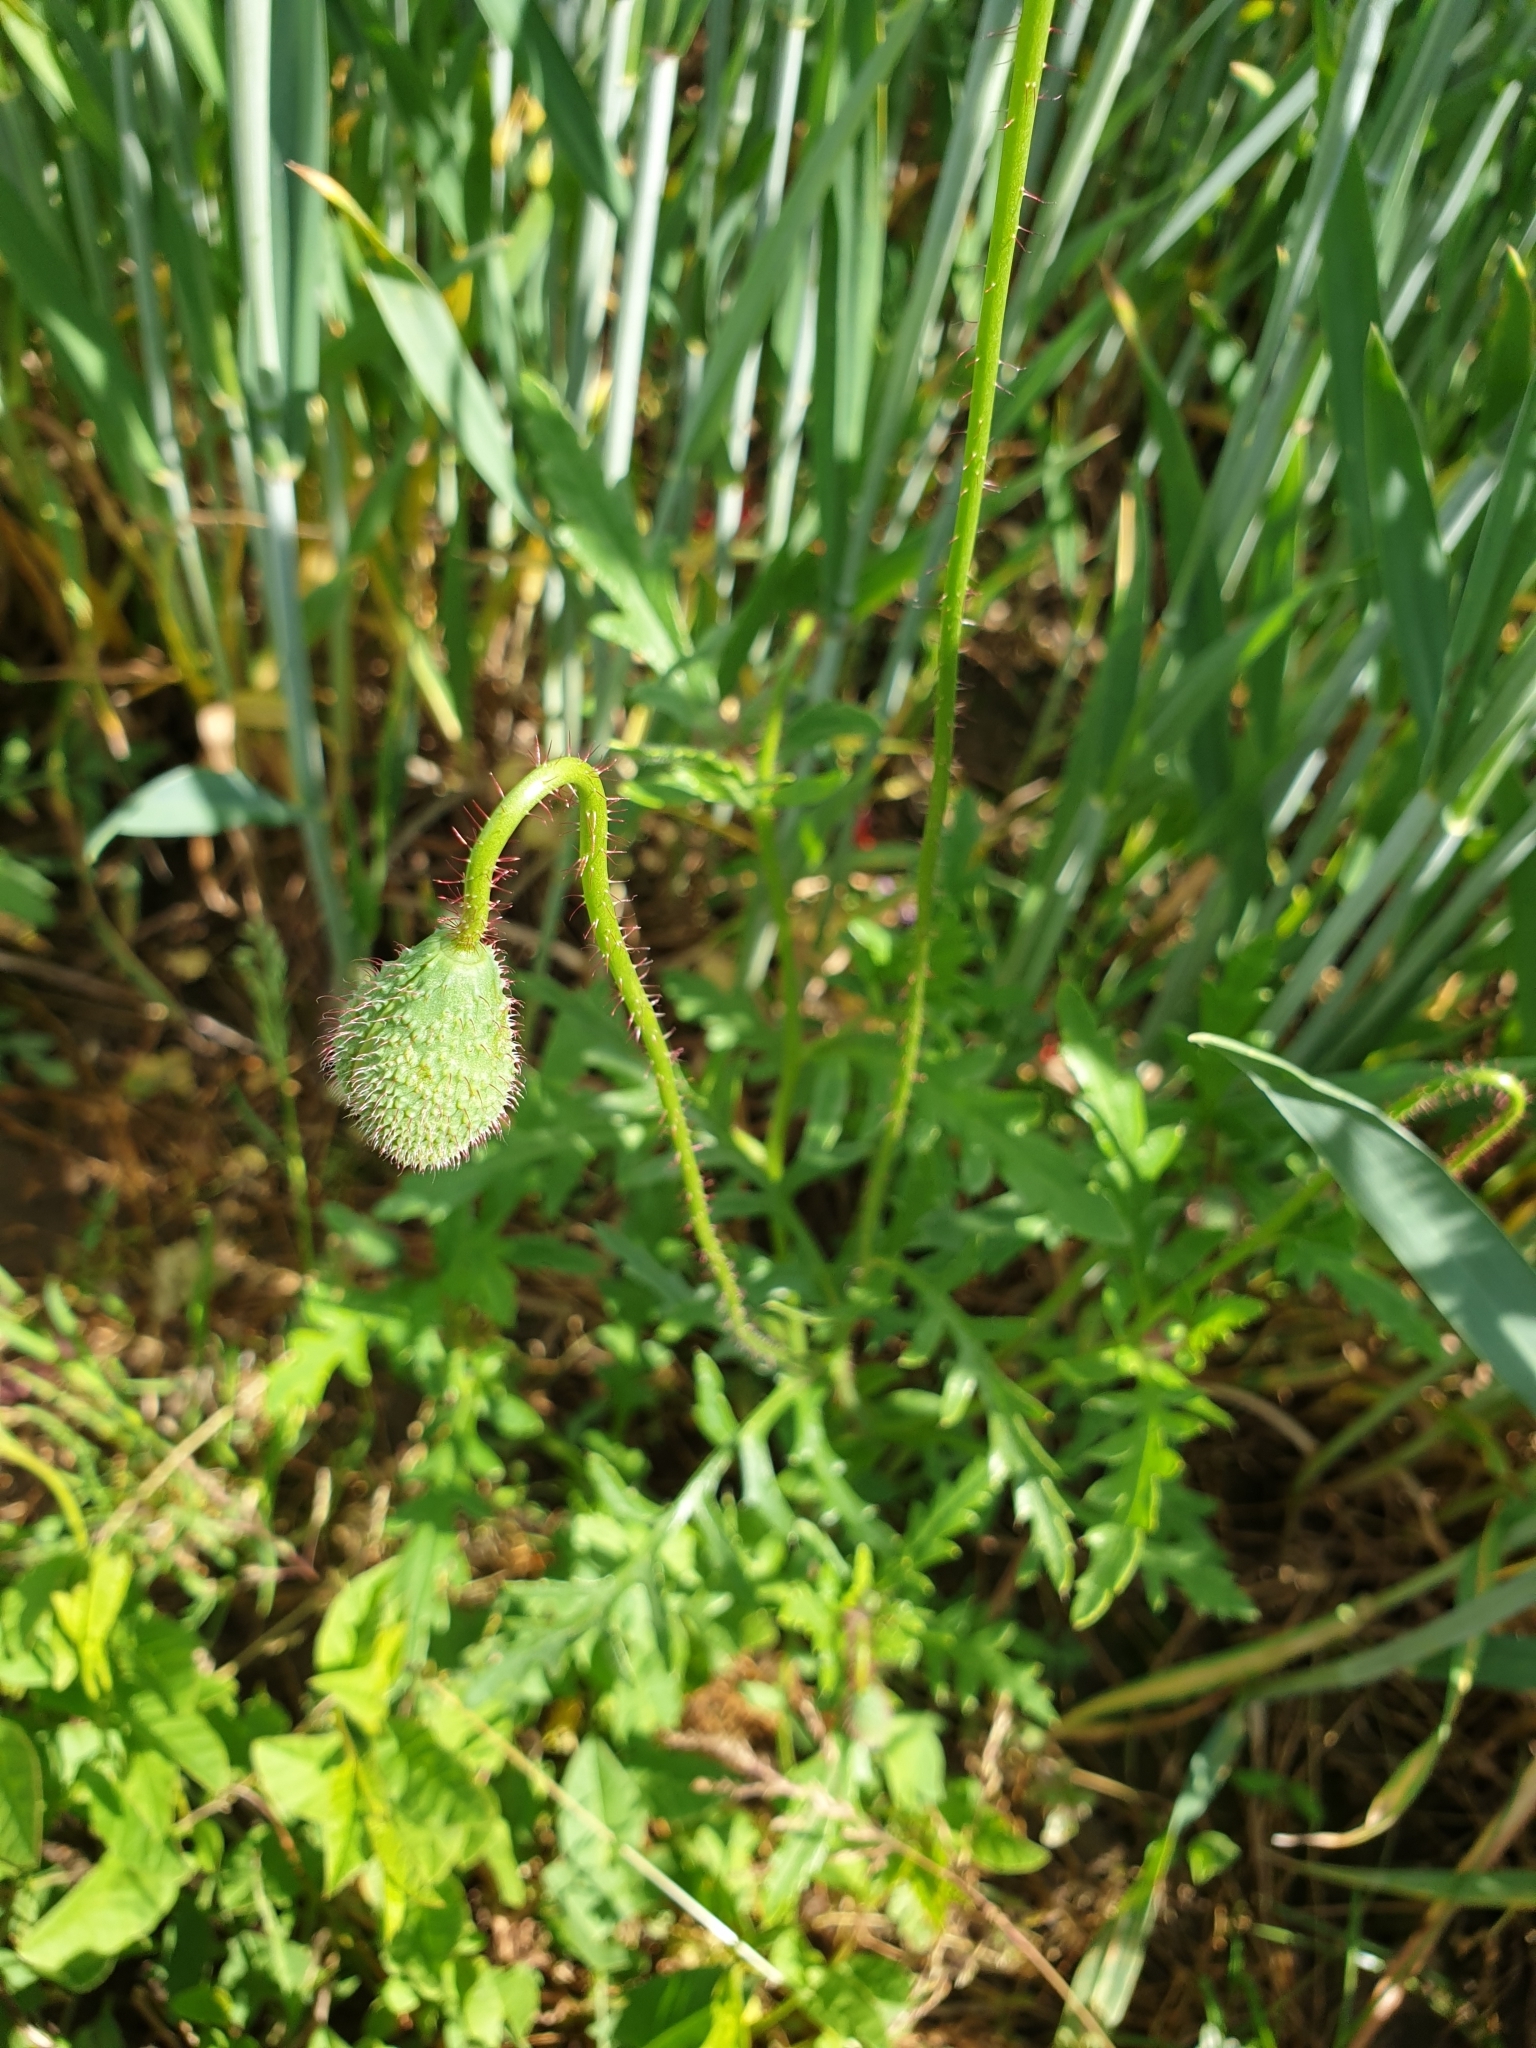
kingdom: Plantae
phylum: Tracheophyta
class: Magnoliopsida
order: Ranunculales
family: Papaveraceae
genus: Papaver
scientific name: Papaver rhoeas
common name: Corn poppy
